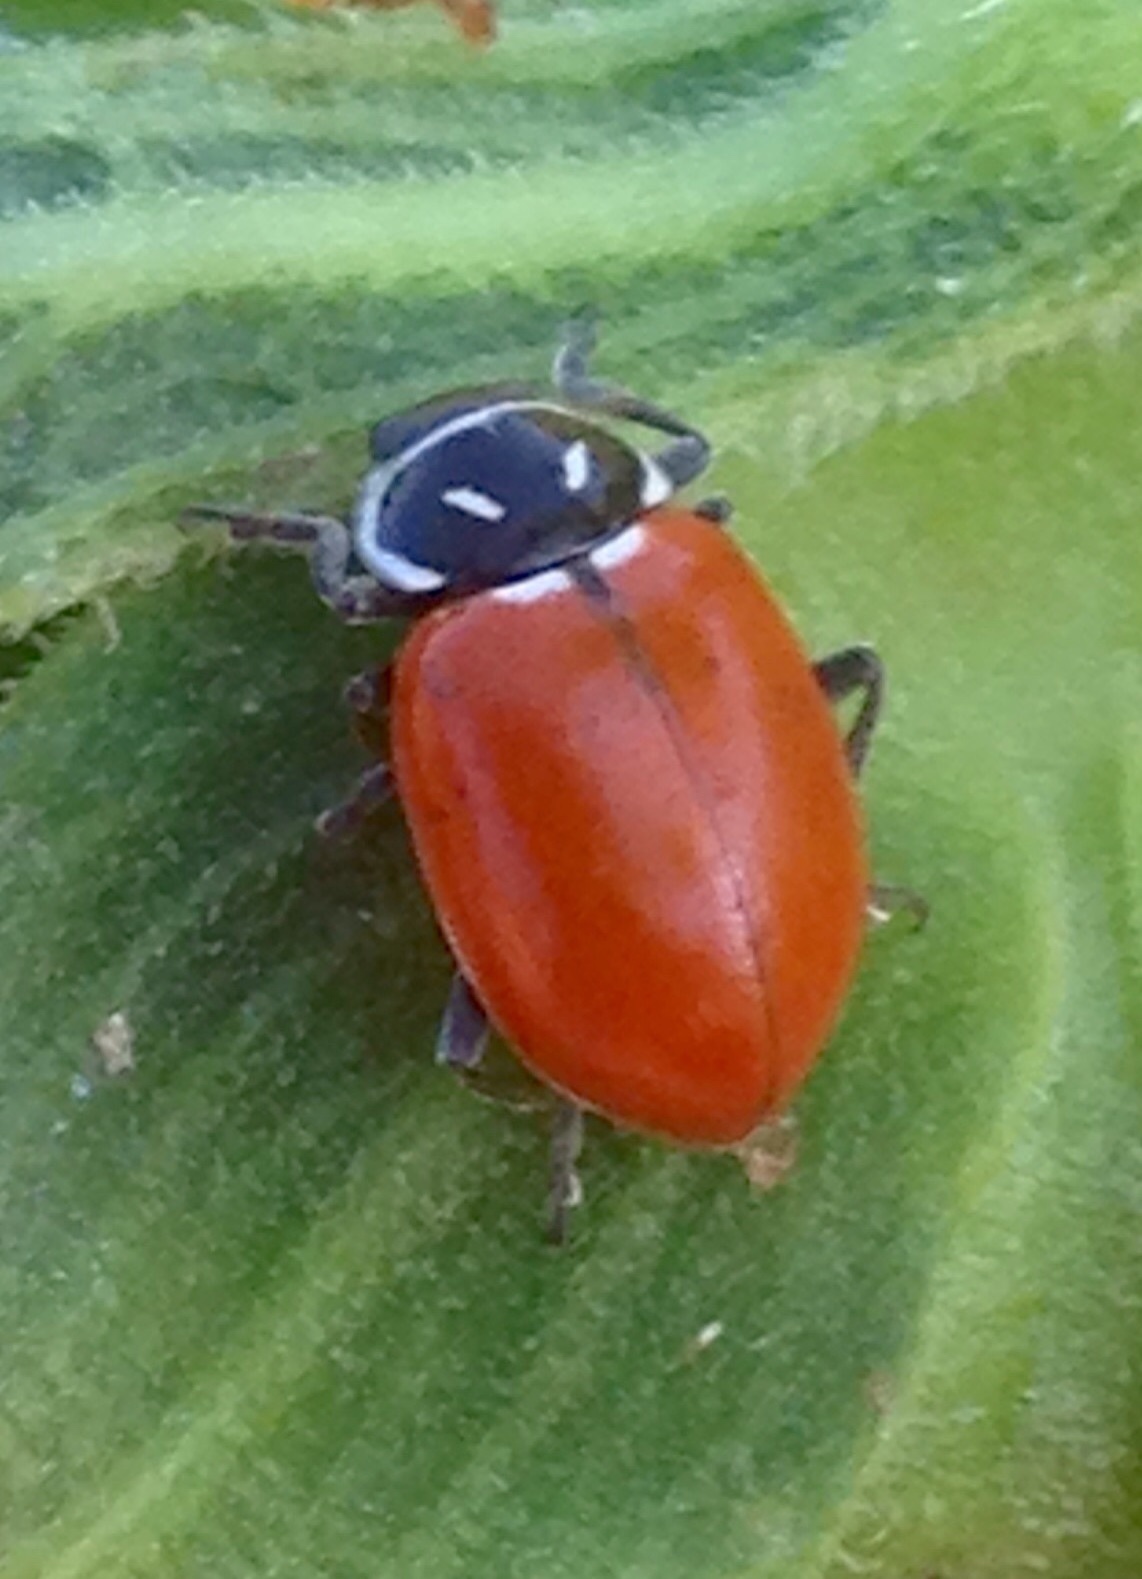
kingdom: Animalia
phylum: Arthropoda
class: Insecta
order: Coleoptera
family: Coccinellidae
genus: Hippodamia
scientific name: Hippodamia convergens
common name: Convergent lady beetle
